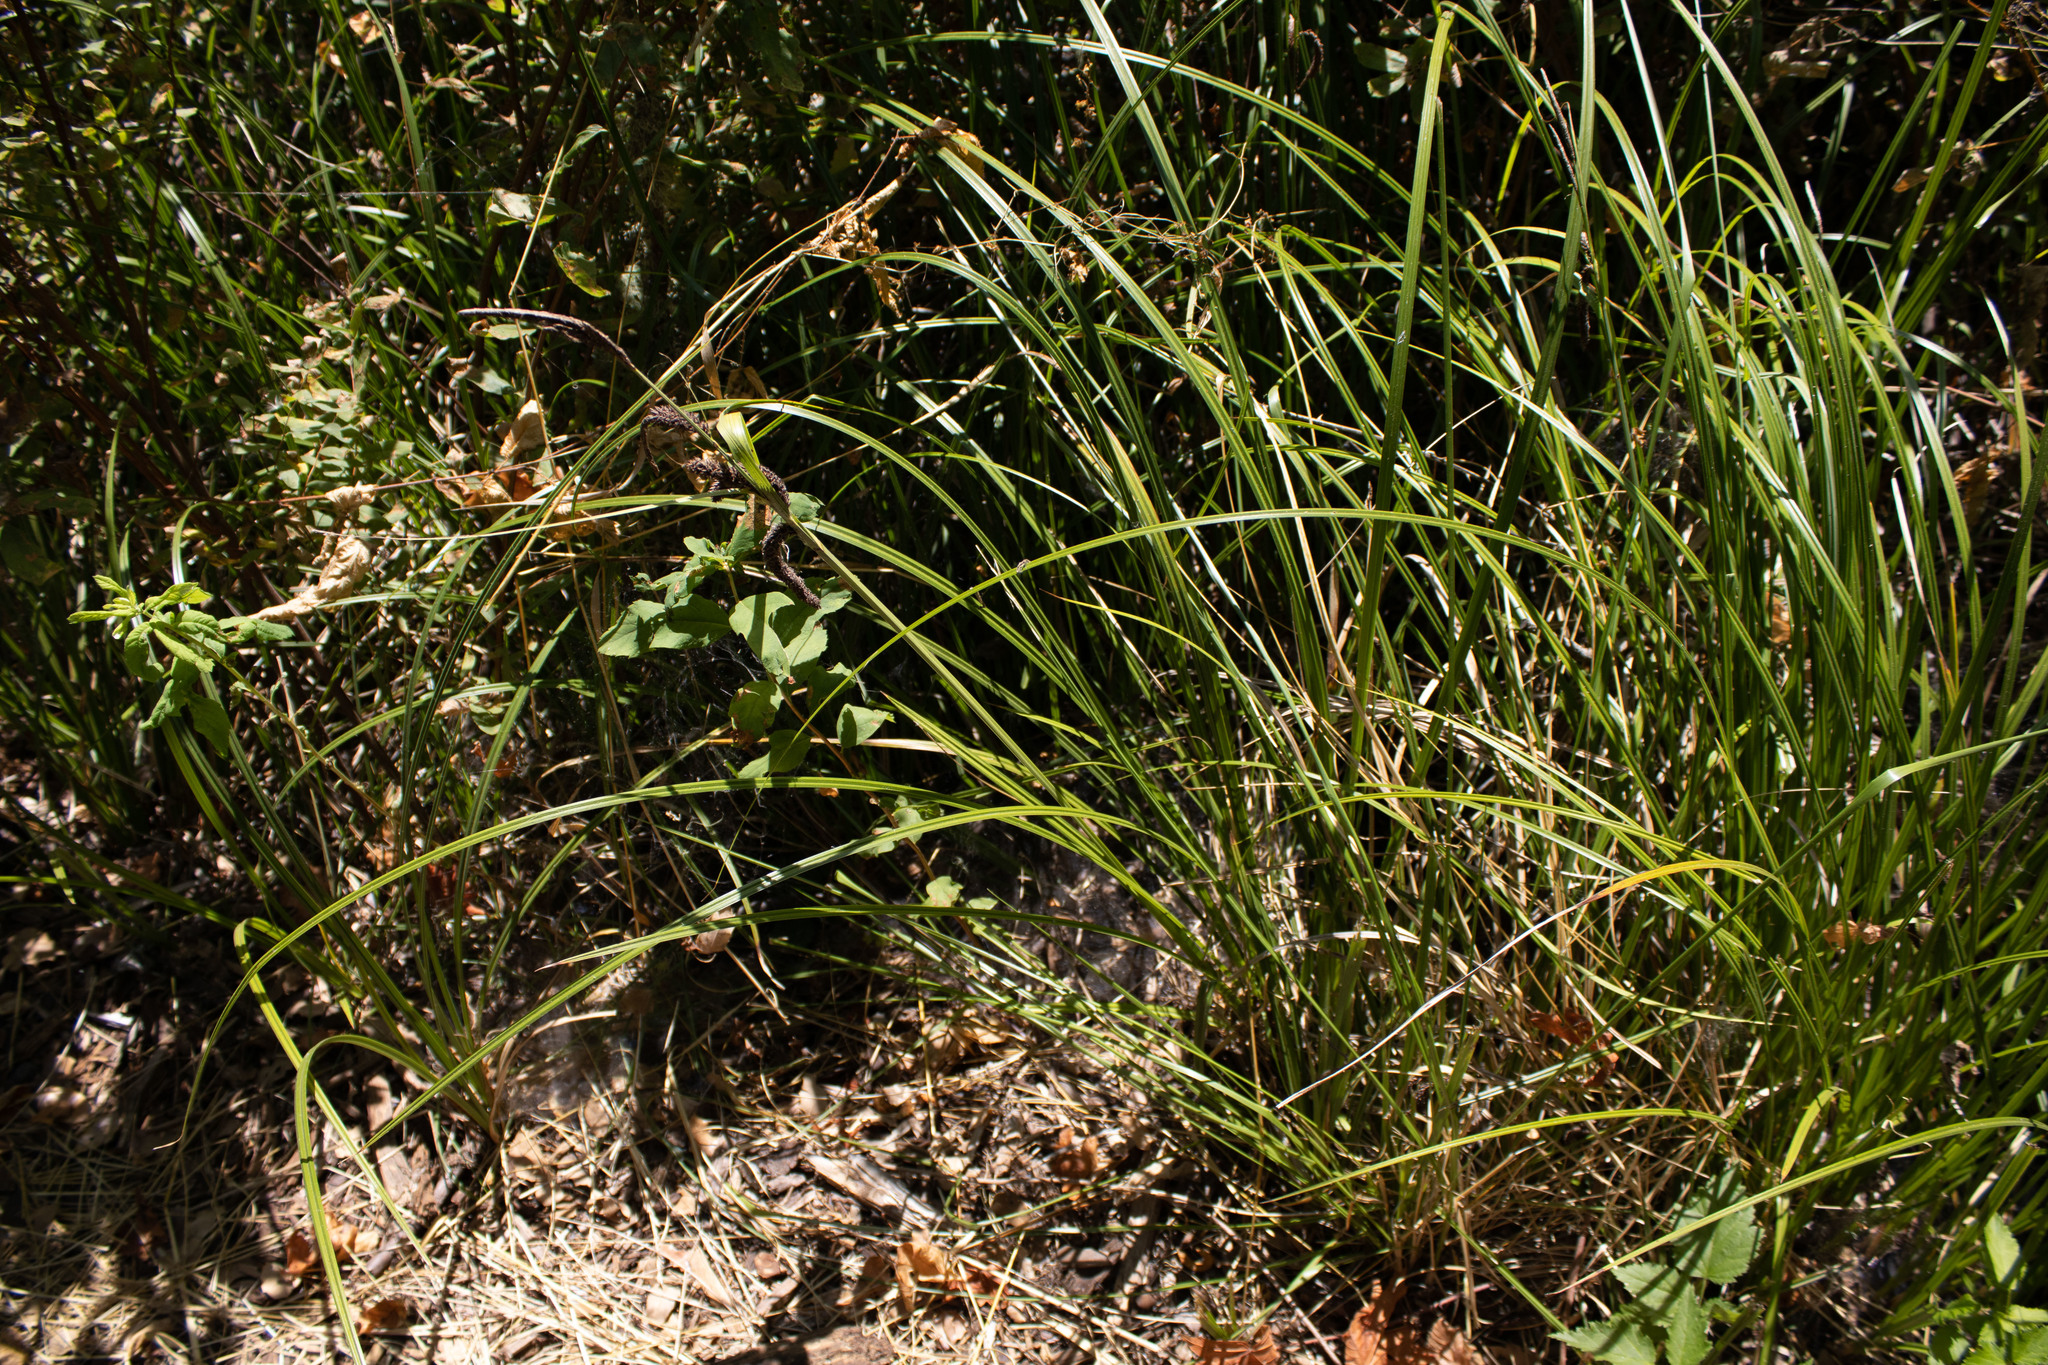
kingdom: Plantae
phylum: Tracheophyta
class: Liliopsida
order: Poales
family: Cyperaceae
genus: Carex
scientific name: Carex obnupta
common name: Slough sedge
